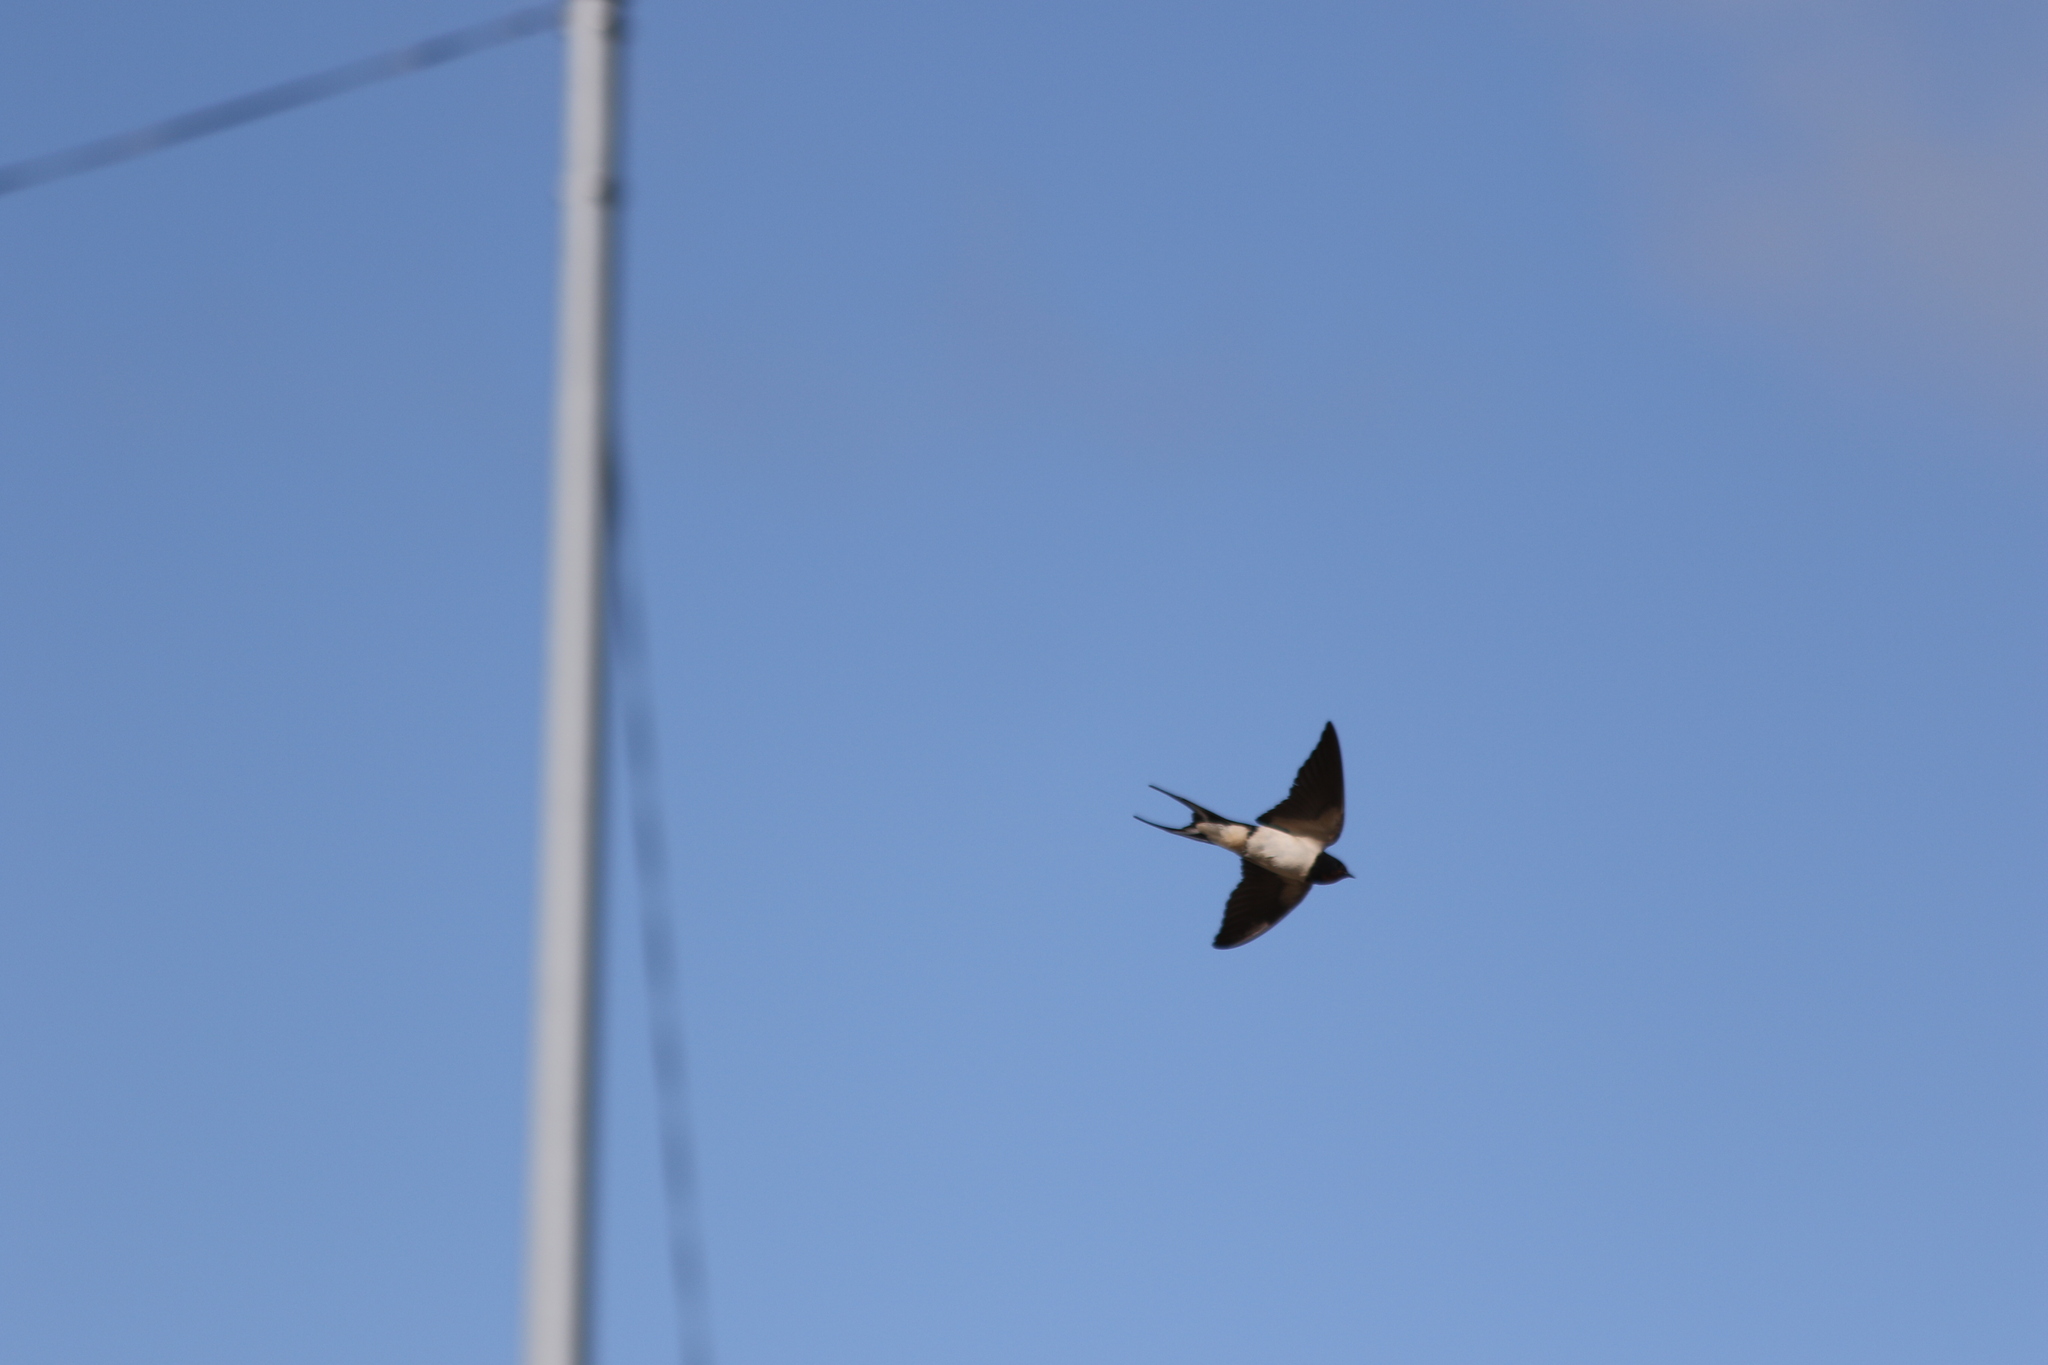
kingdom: Animalia
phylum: Chordata
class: Aves
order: Passeriformes
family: Hirundinidae
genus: Hirundo
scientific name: Hirundo rustica
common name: Barn swallow
